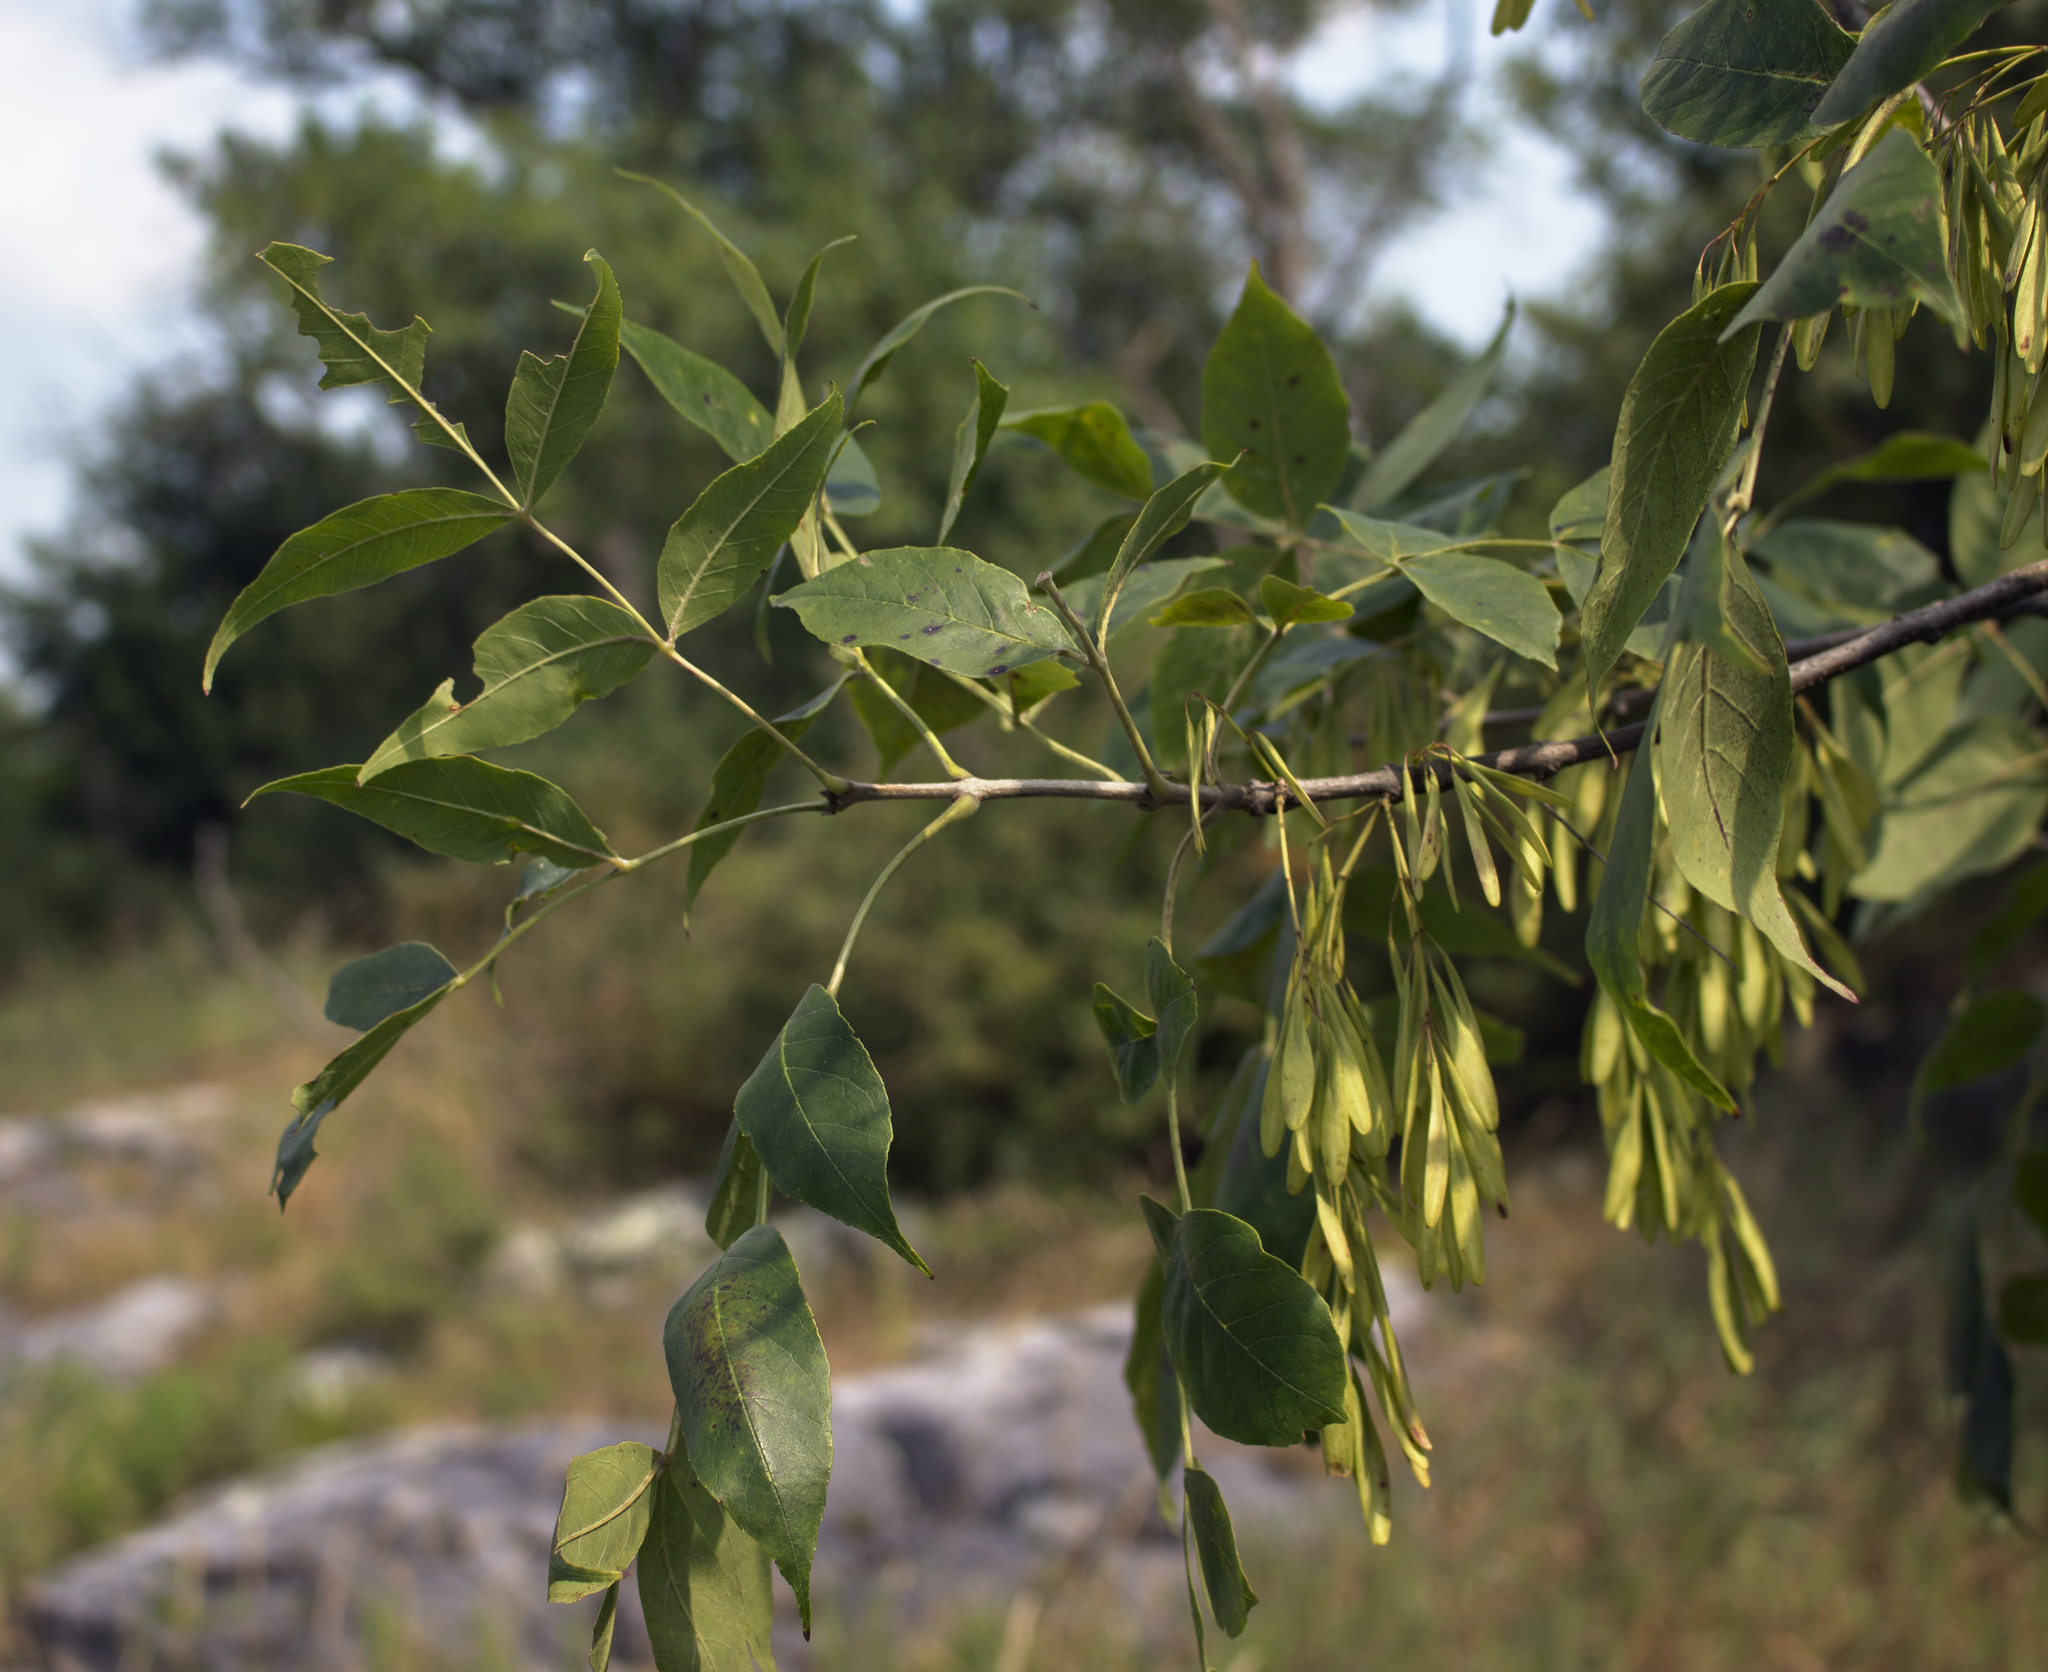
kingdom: Plantae
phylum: Tracheophyta
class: Magnoliopsida
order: Lamiales
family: Oleaceae
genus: Fraxinus
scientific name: Fraxinus pennsylvanica
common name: Green ash
